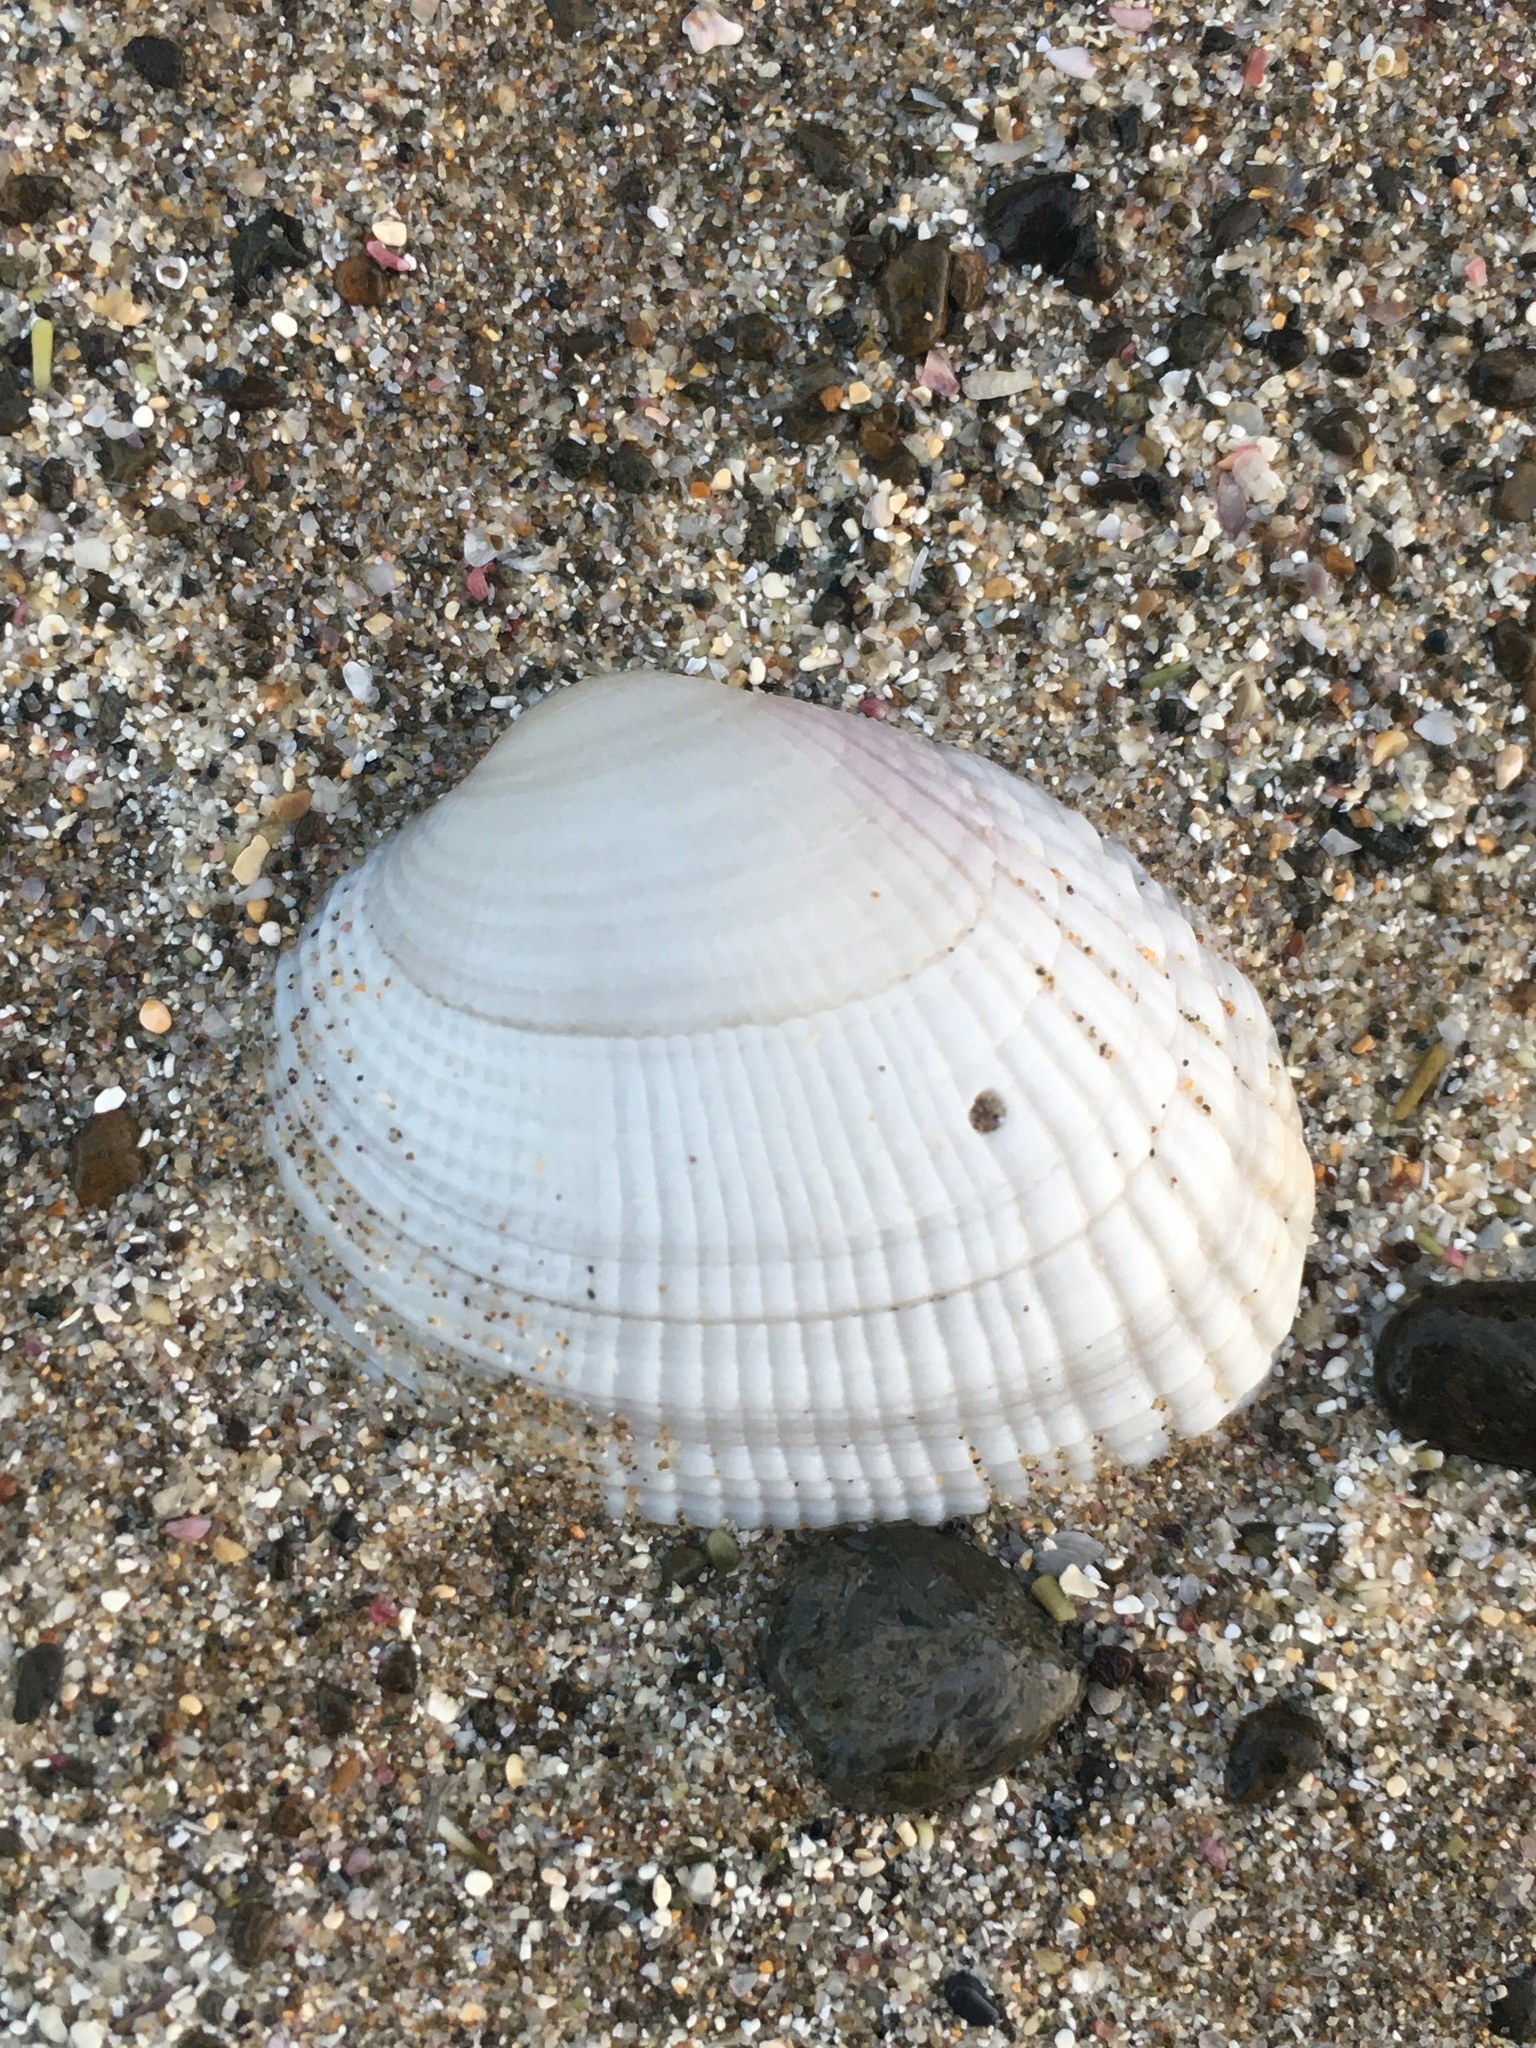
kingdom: Animalia
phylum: Mollusca
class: Bivalvia
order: Venerida
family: Veneridae
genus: Leukoma
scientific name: Leukoma crassicosta
